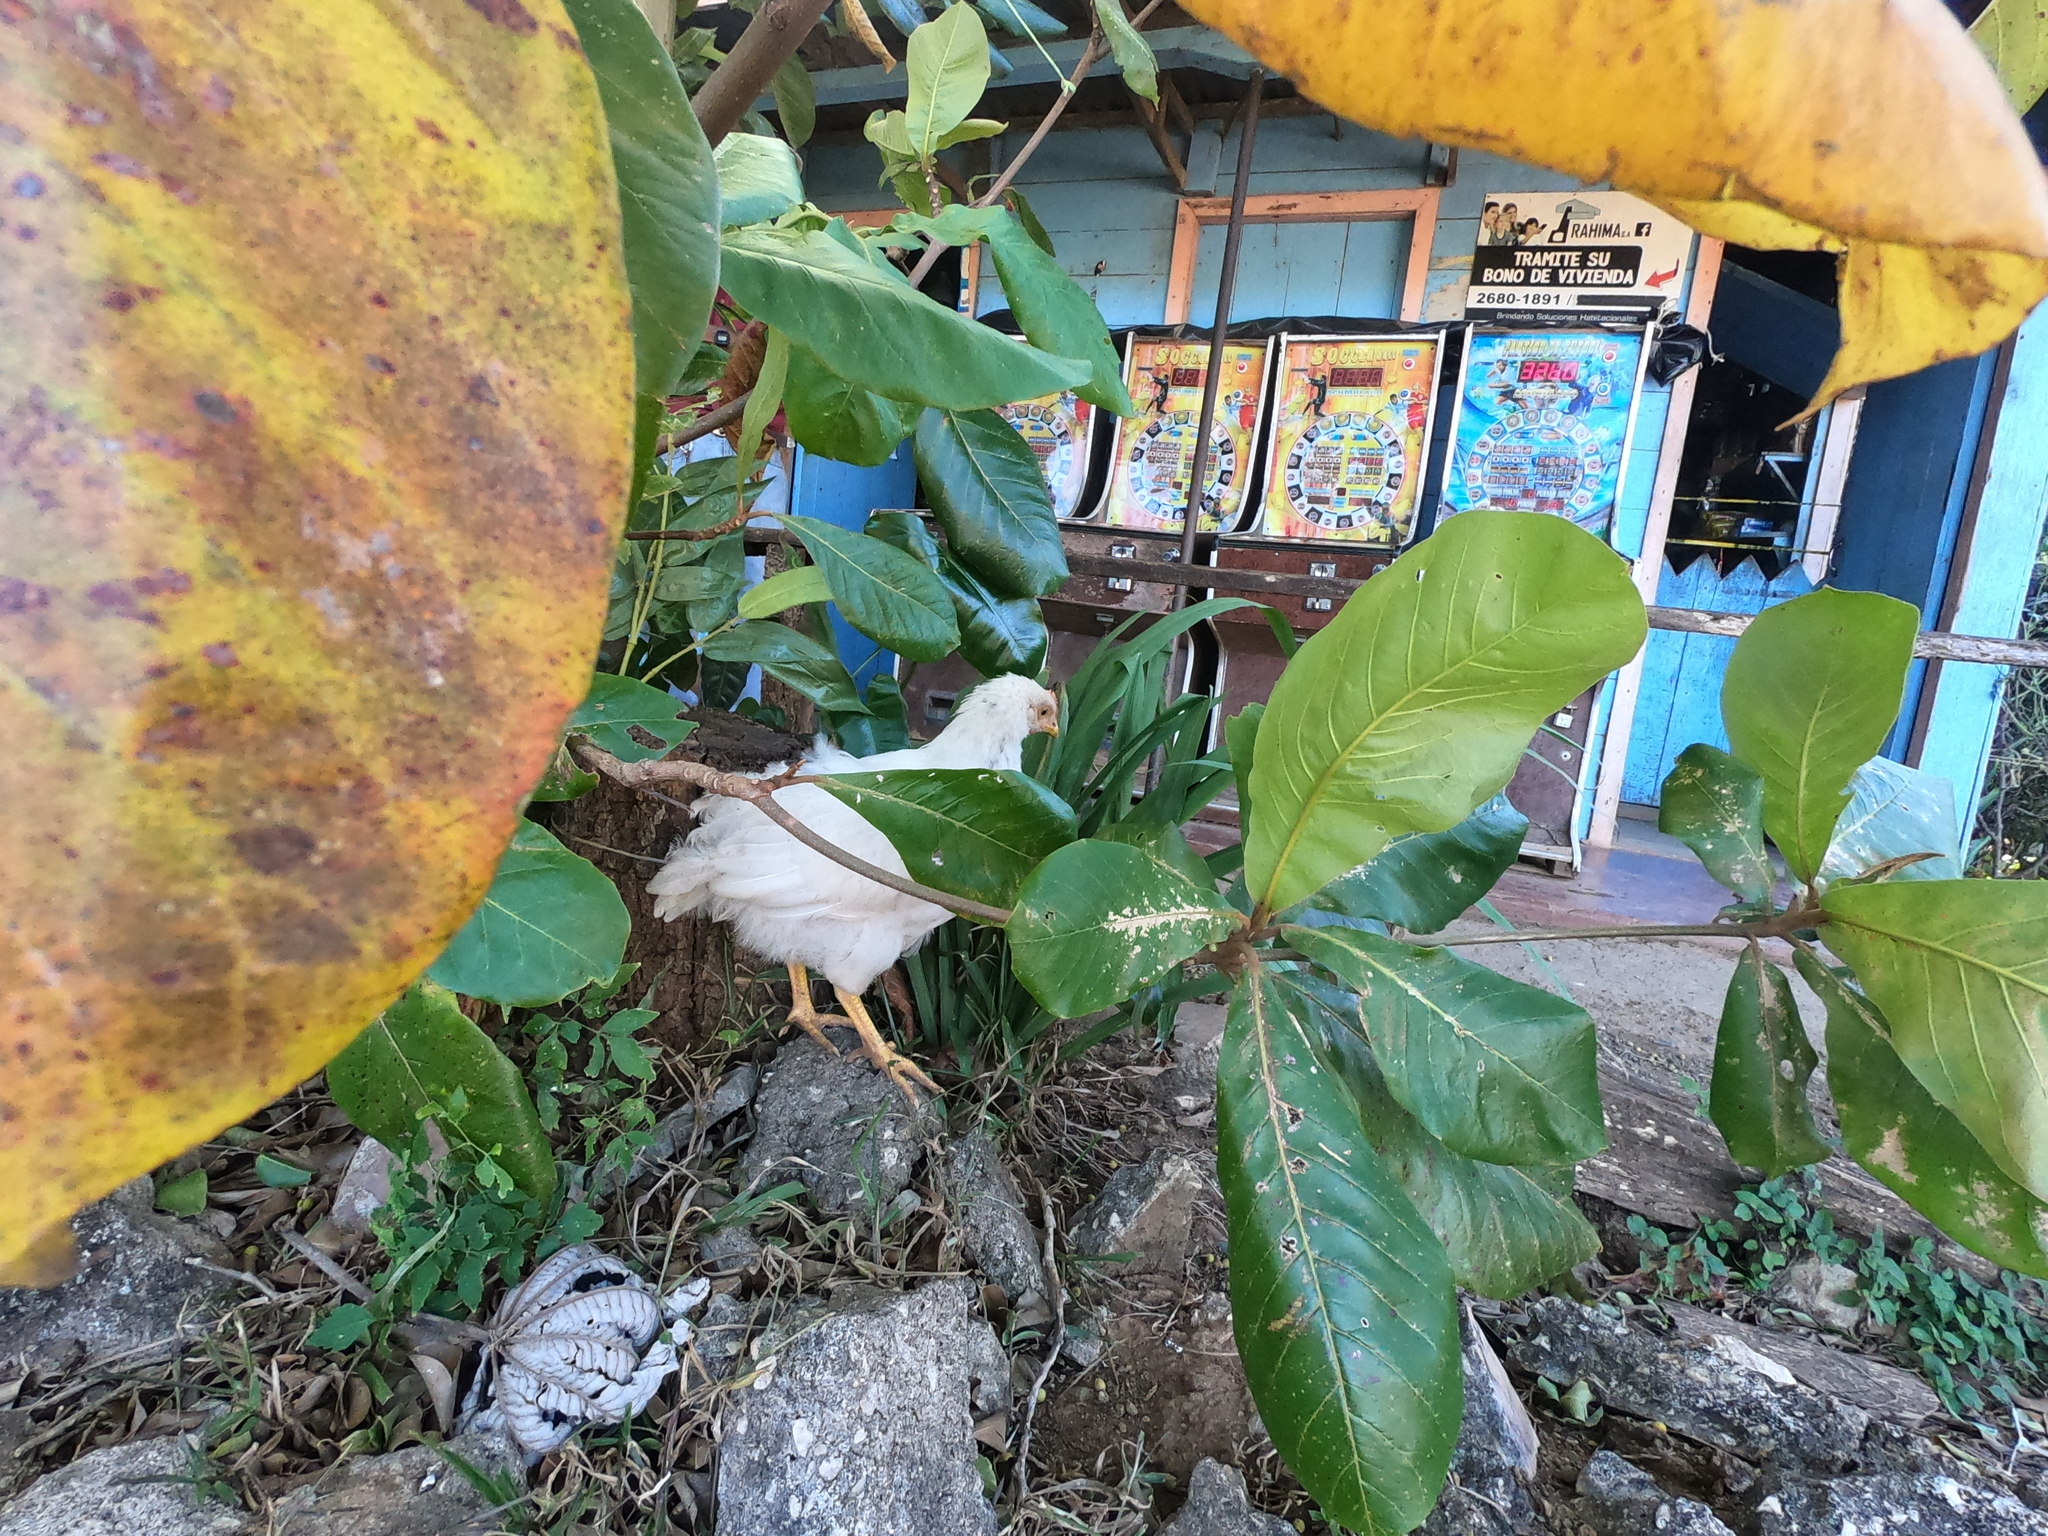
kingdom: Animalia
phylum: Chordata
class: Aves
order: Galliformes
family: Phasianidae
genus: Gallus
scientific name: Gallus gallus
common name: Red junglefowl
